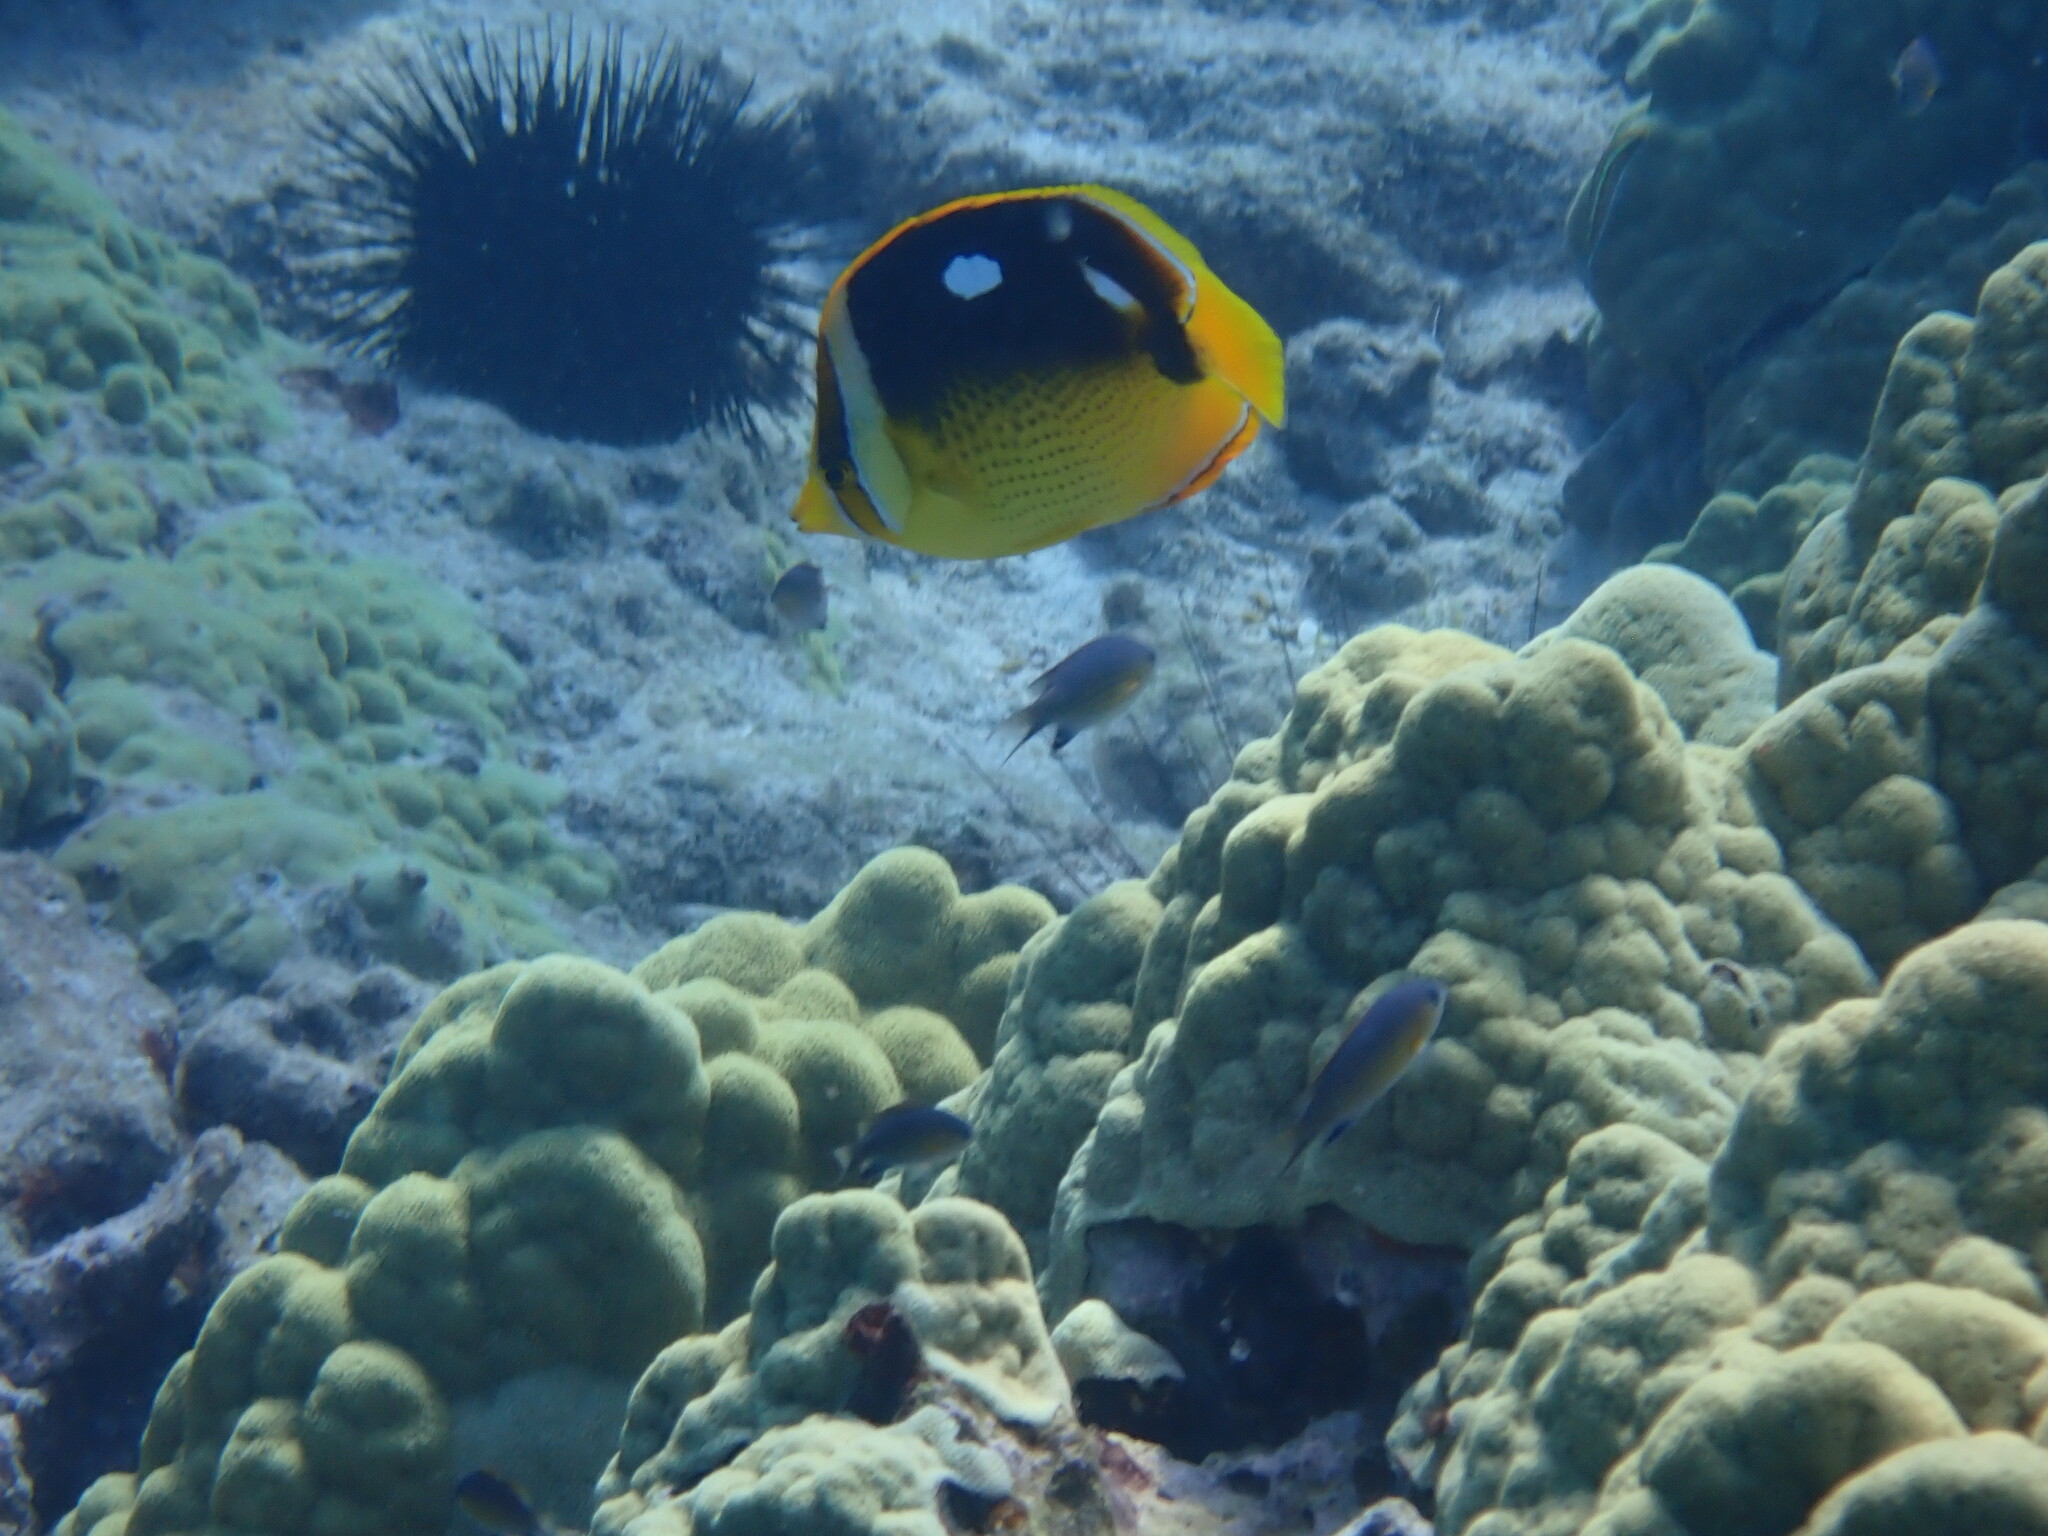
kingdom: Animalia
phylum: Chordata
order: Perciformes
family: Chaetodontidae
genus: Chaetodon
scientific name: Chaetodon quadrimaculatus
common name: Fourspot butterflyfish
